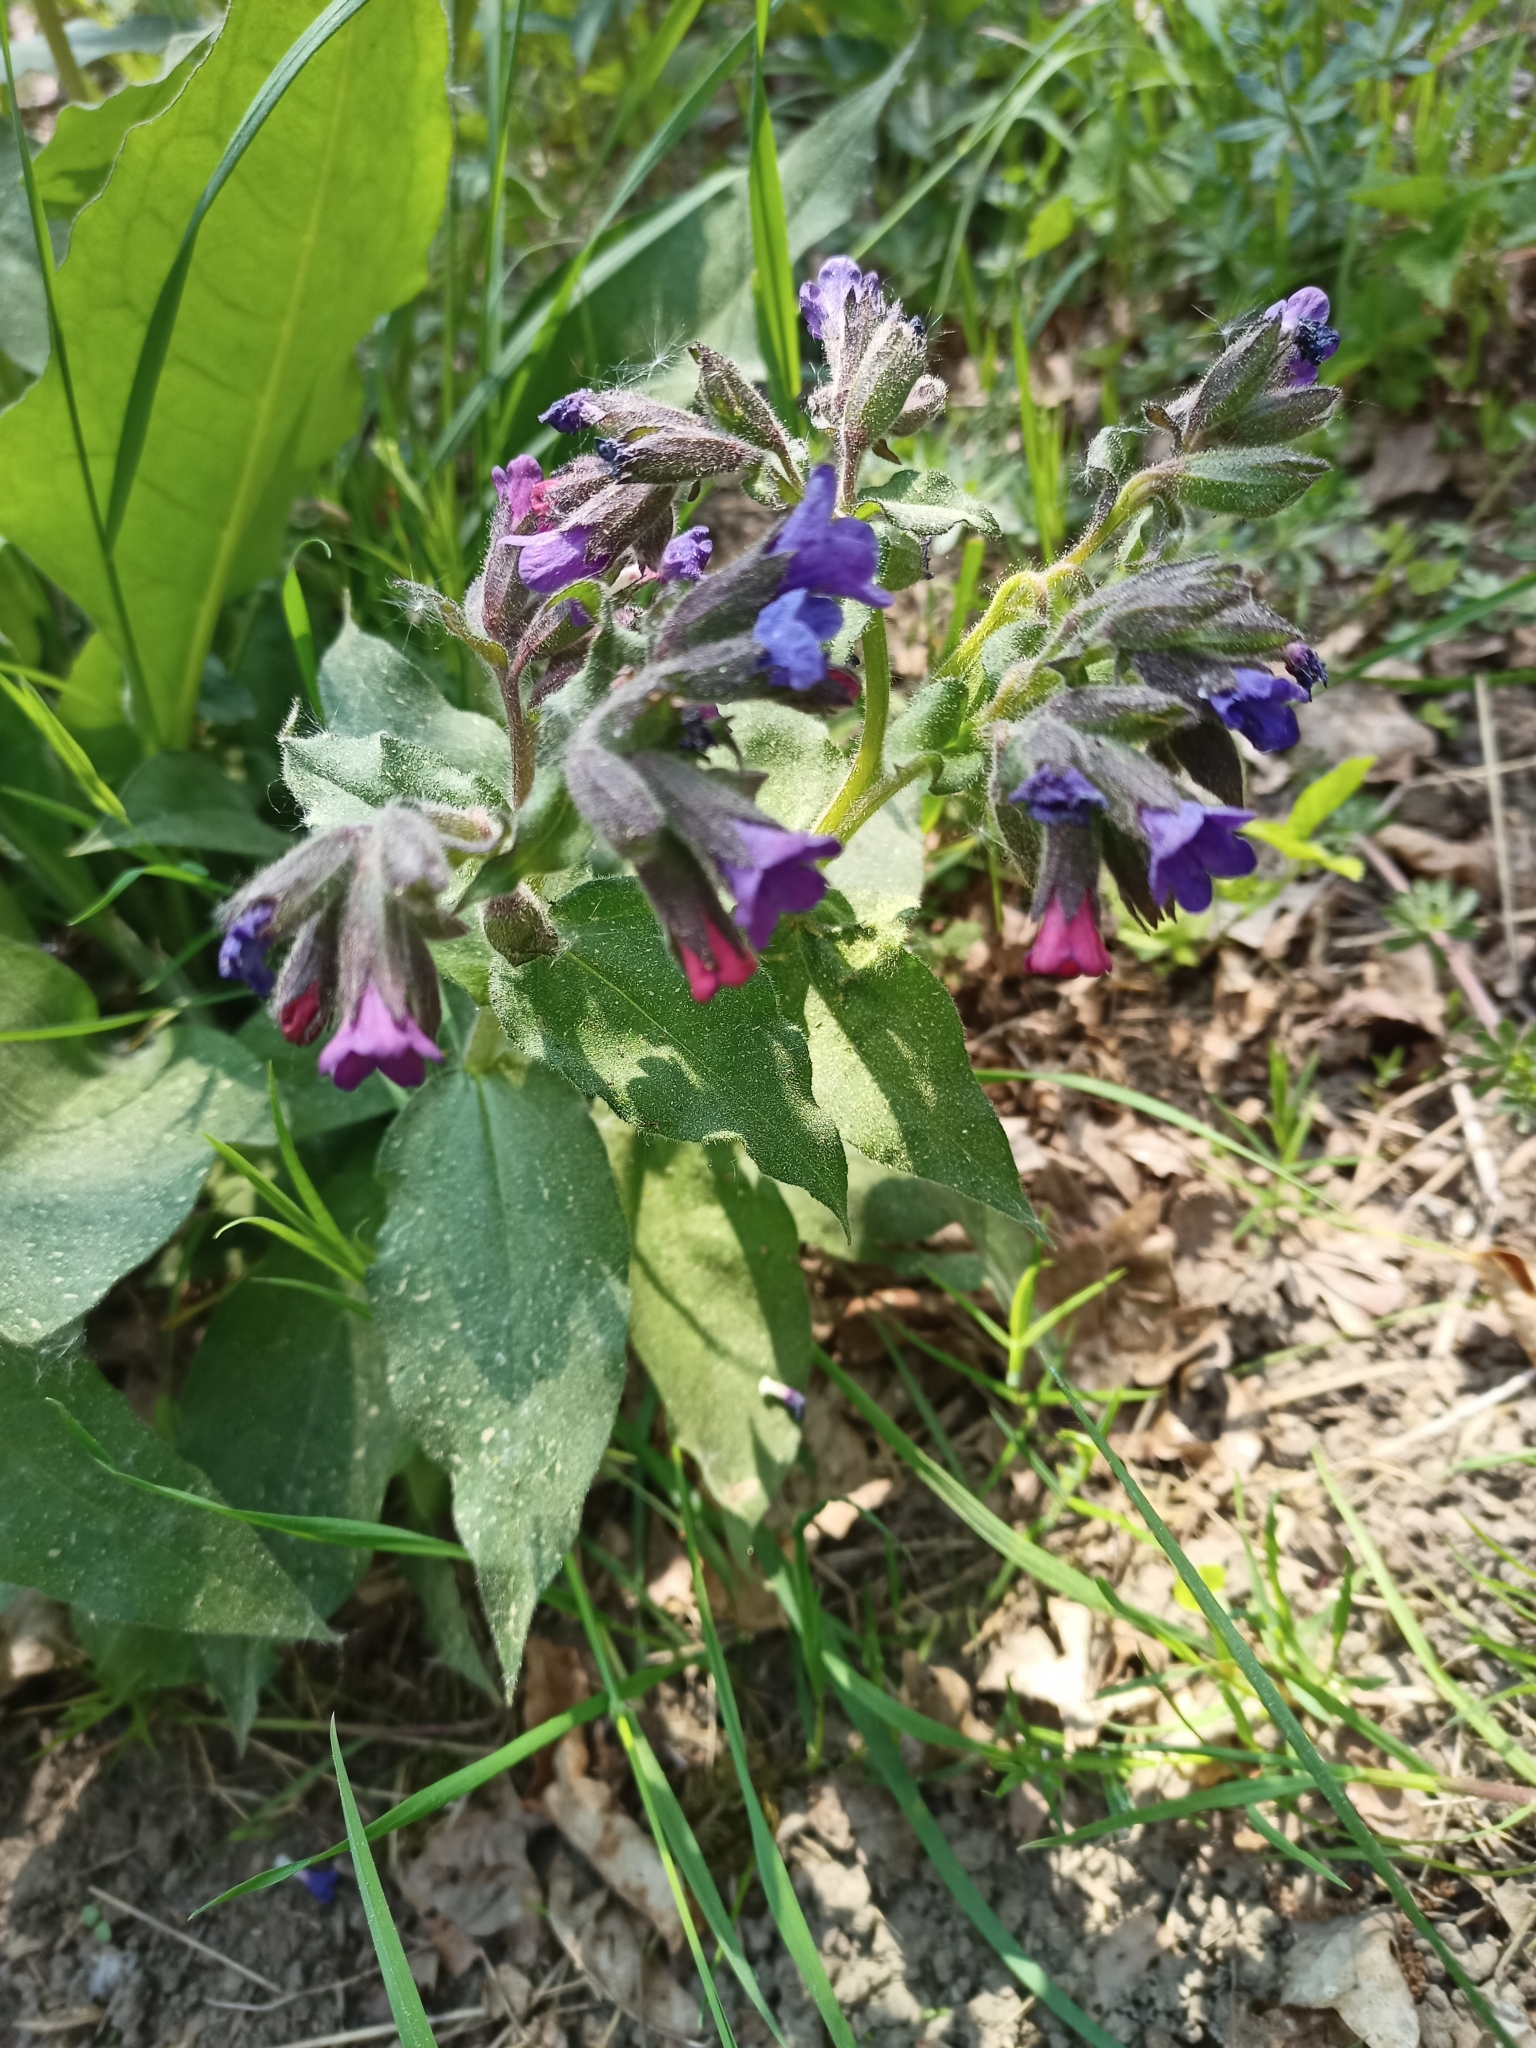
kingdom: Plantae
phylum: Tracheophyta
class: Magnoliopsida
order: Boraginales
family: Boraginaceae
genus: Pulmonaria
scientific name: Pulmonaria officinalis
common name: Lungwort
